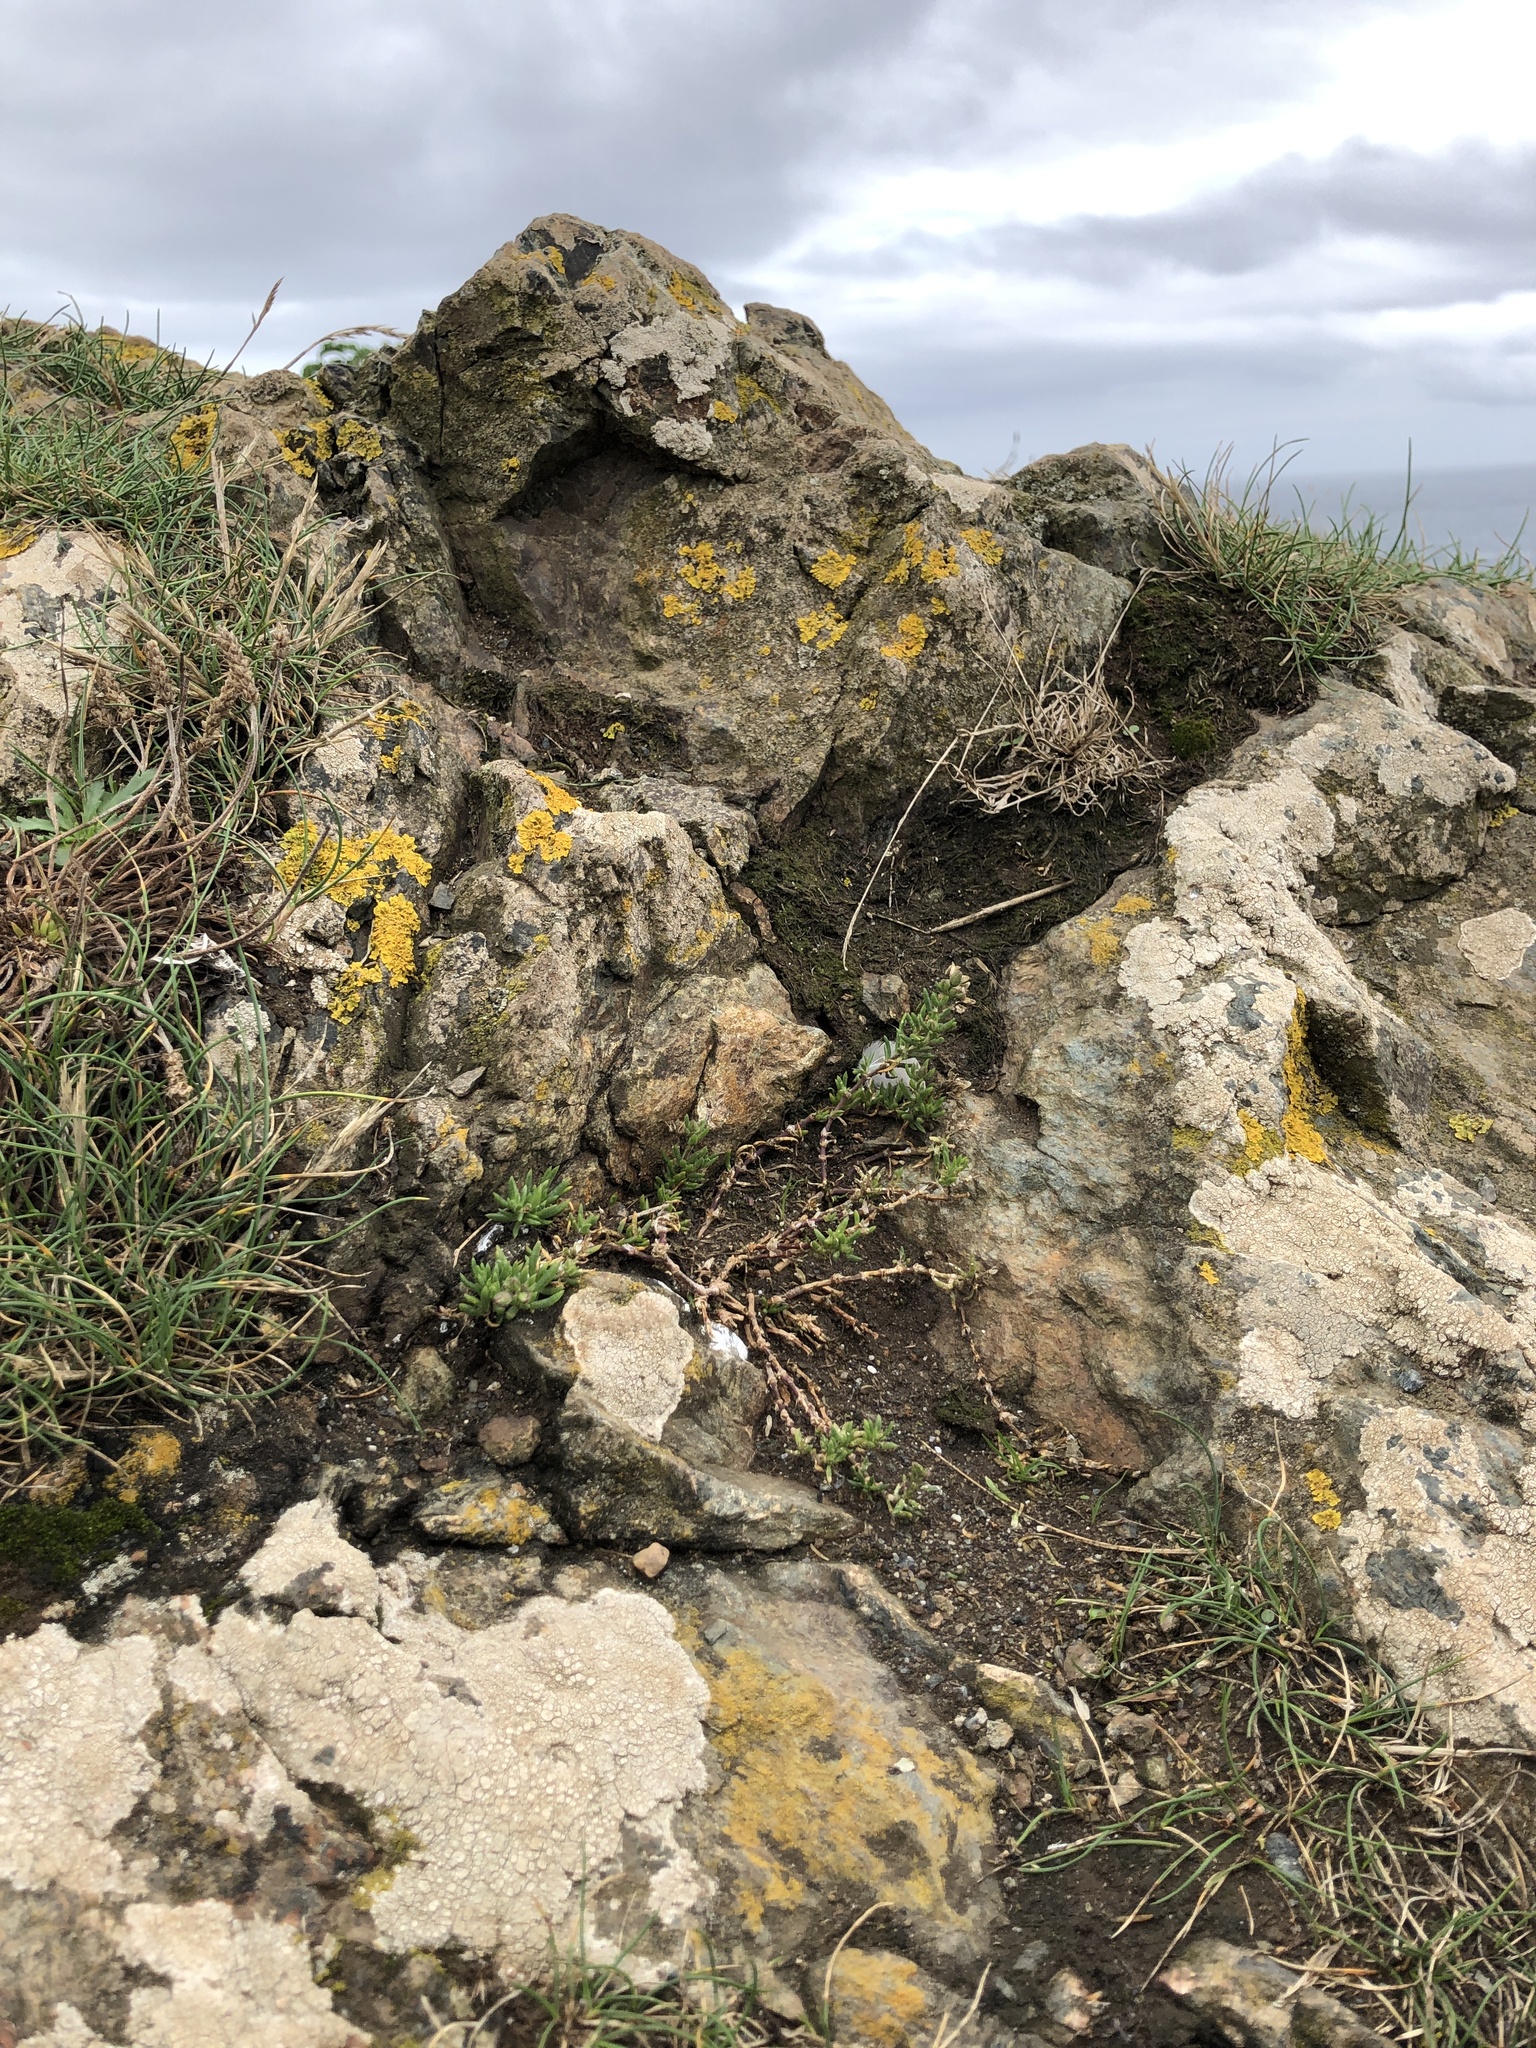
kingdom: Plantae
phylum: Bryophyta
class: Bryopsida
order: Pottiales
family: Pottiaceae
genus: Tortula
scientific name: Tortula atrovirens
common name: Rib-leaf moss
